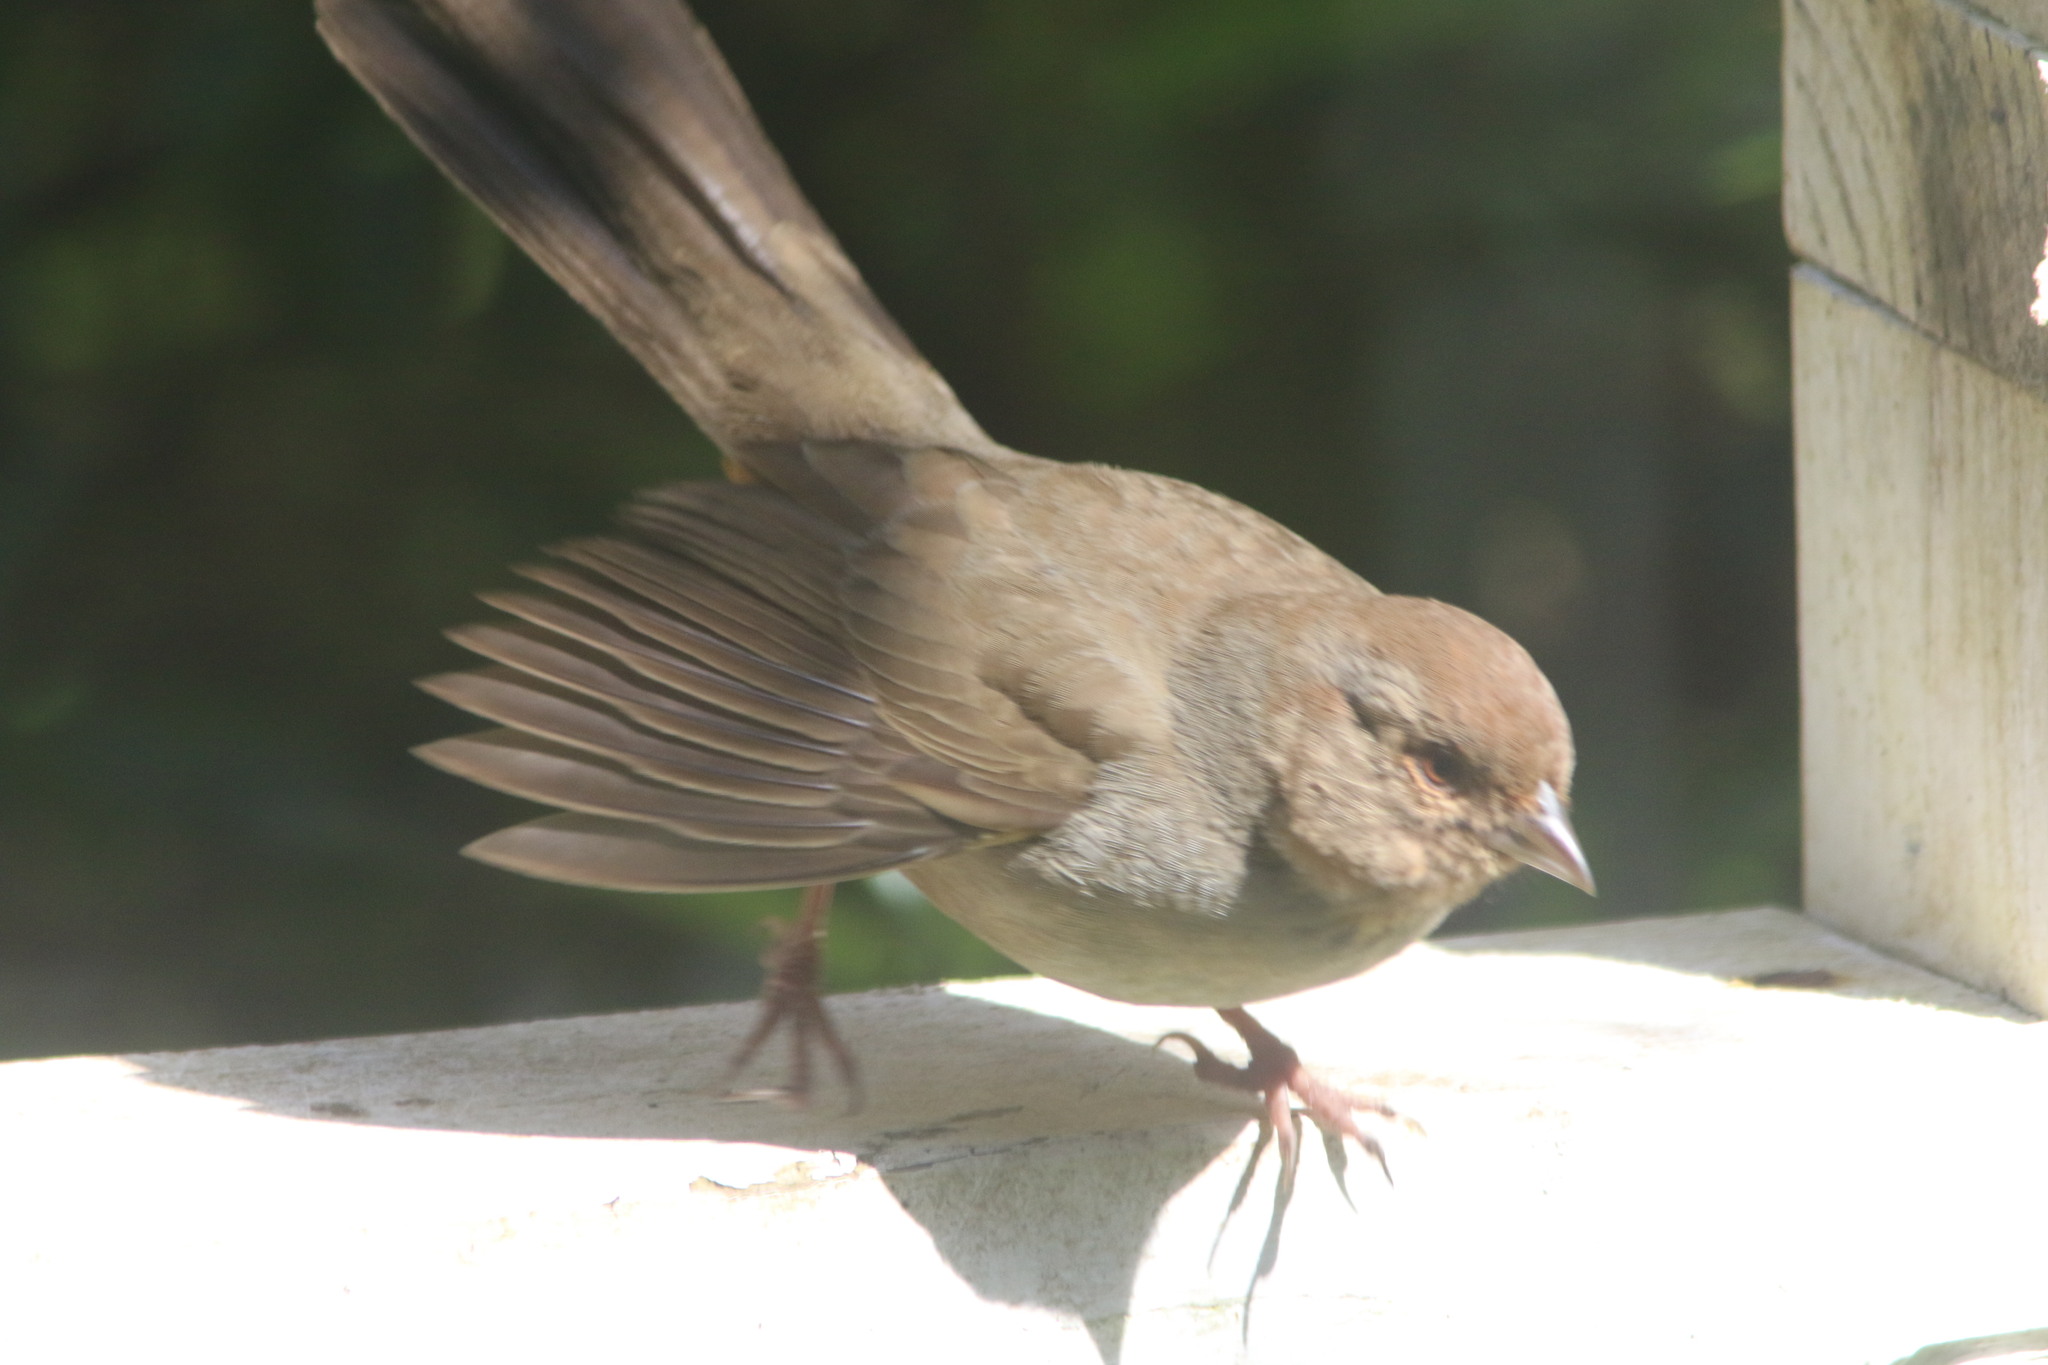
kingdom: Animalia
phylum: Chordata
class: Aves
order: Passeriformes
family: Passerellidae
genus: Melozone
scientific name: Melozone crissalis
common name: California towhee
